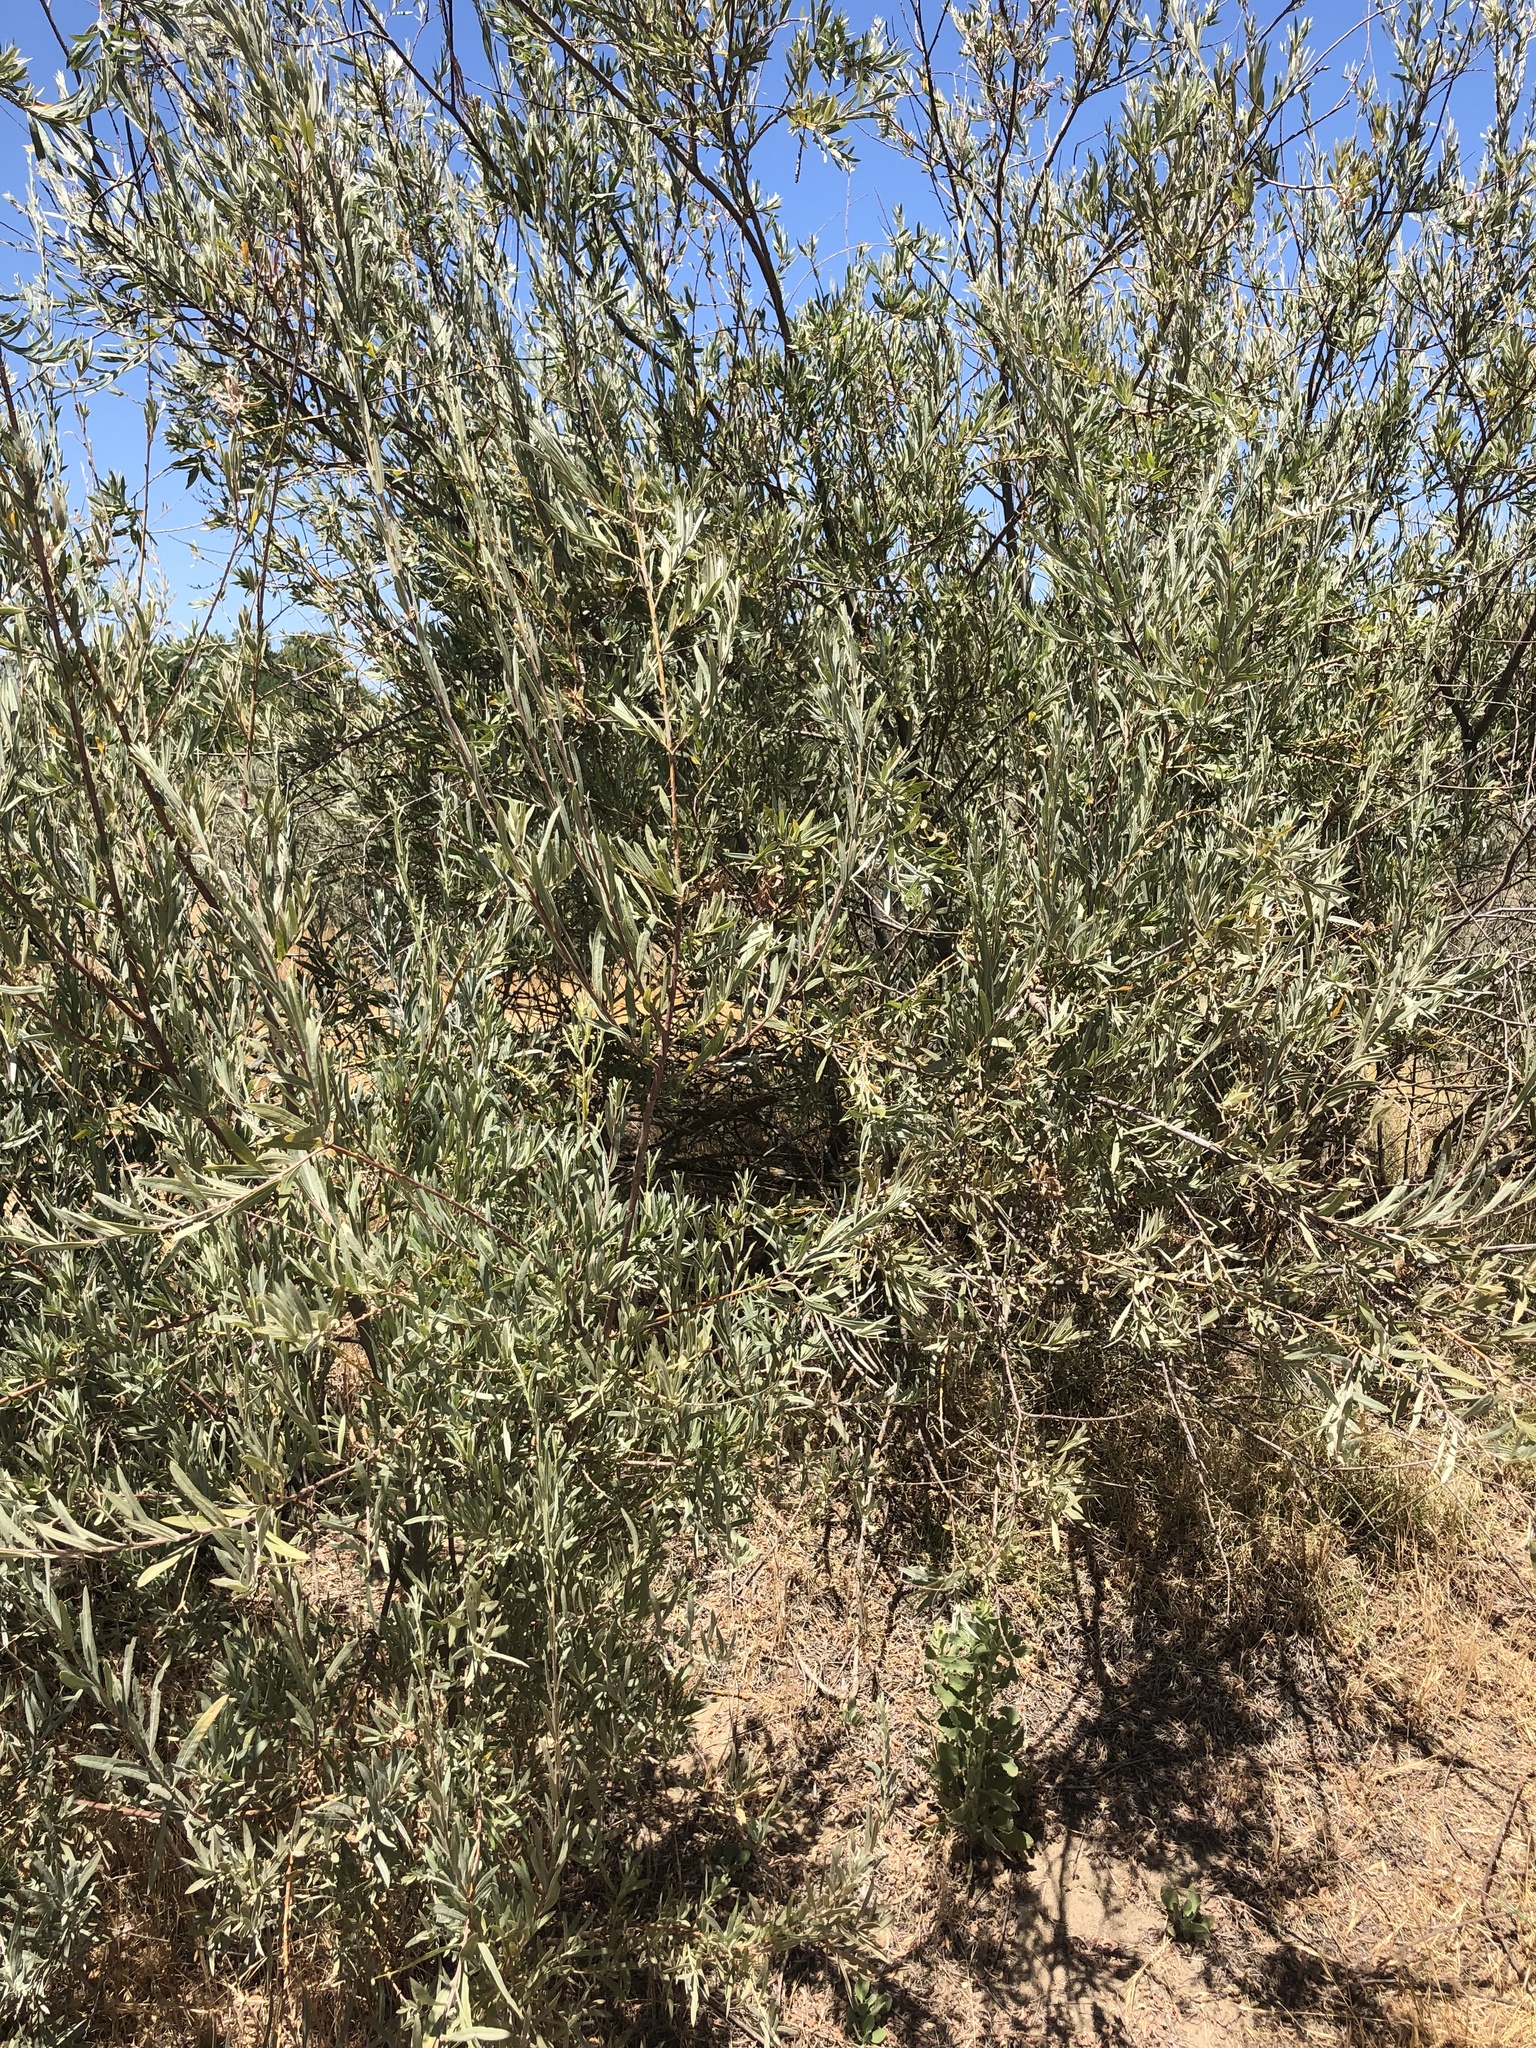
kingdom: Plantae
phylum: Tracheophyta
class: Magnoliopsida
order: Malpighiales
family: Salicaceae
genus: Salix
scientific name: Salix exigua
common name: Coyote willow
